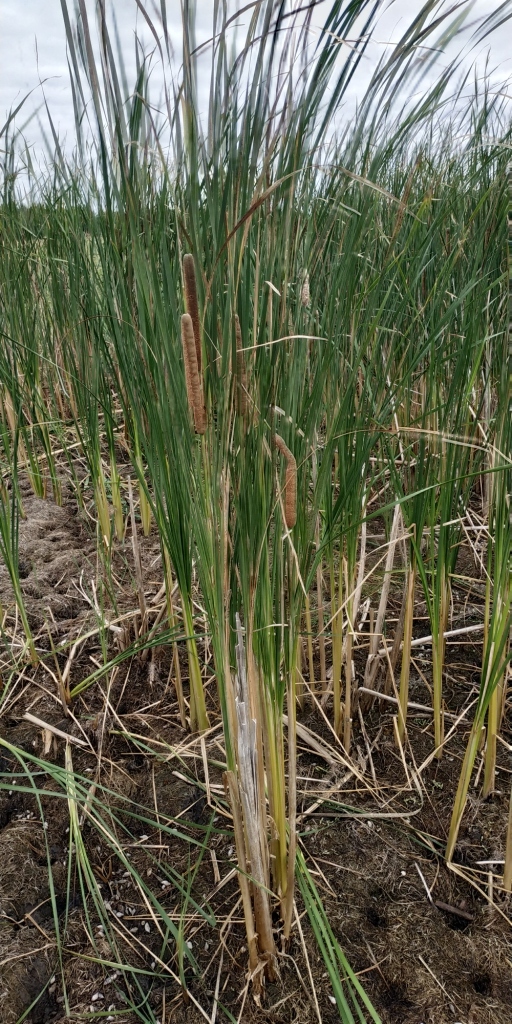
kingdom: Plantae
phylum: Tracheophyta
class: Liliopsida
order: Poales
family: Typhaceae
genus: Typha
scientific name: Typha linnaei
